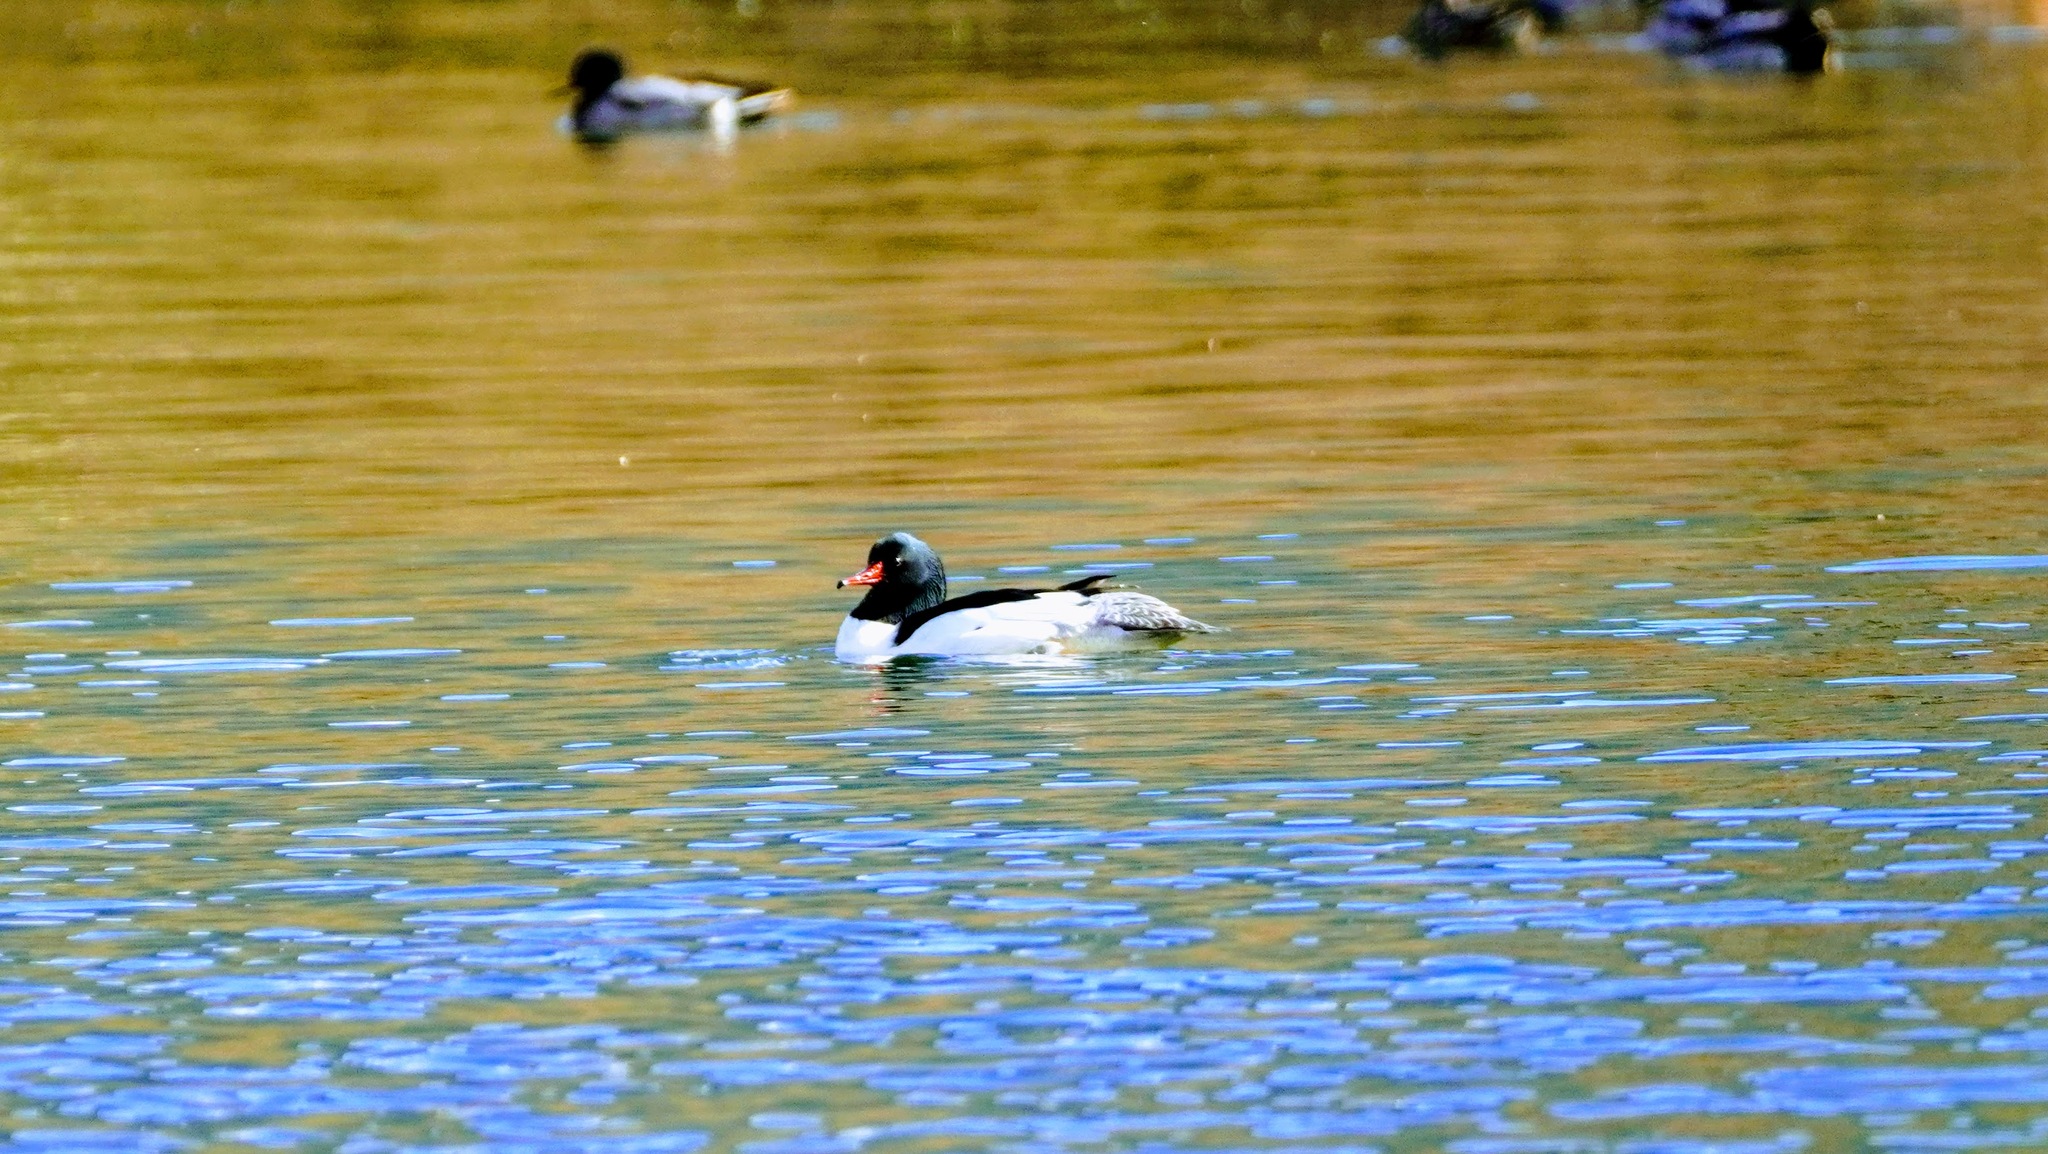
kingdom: Animalia
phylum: Chordata
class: Aves
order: Anseriformes
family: Anatidae
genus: Mergus
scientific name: Mergus merganser
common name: Common merganser
